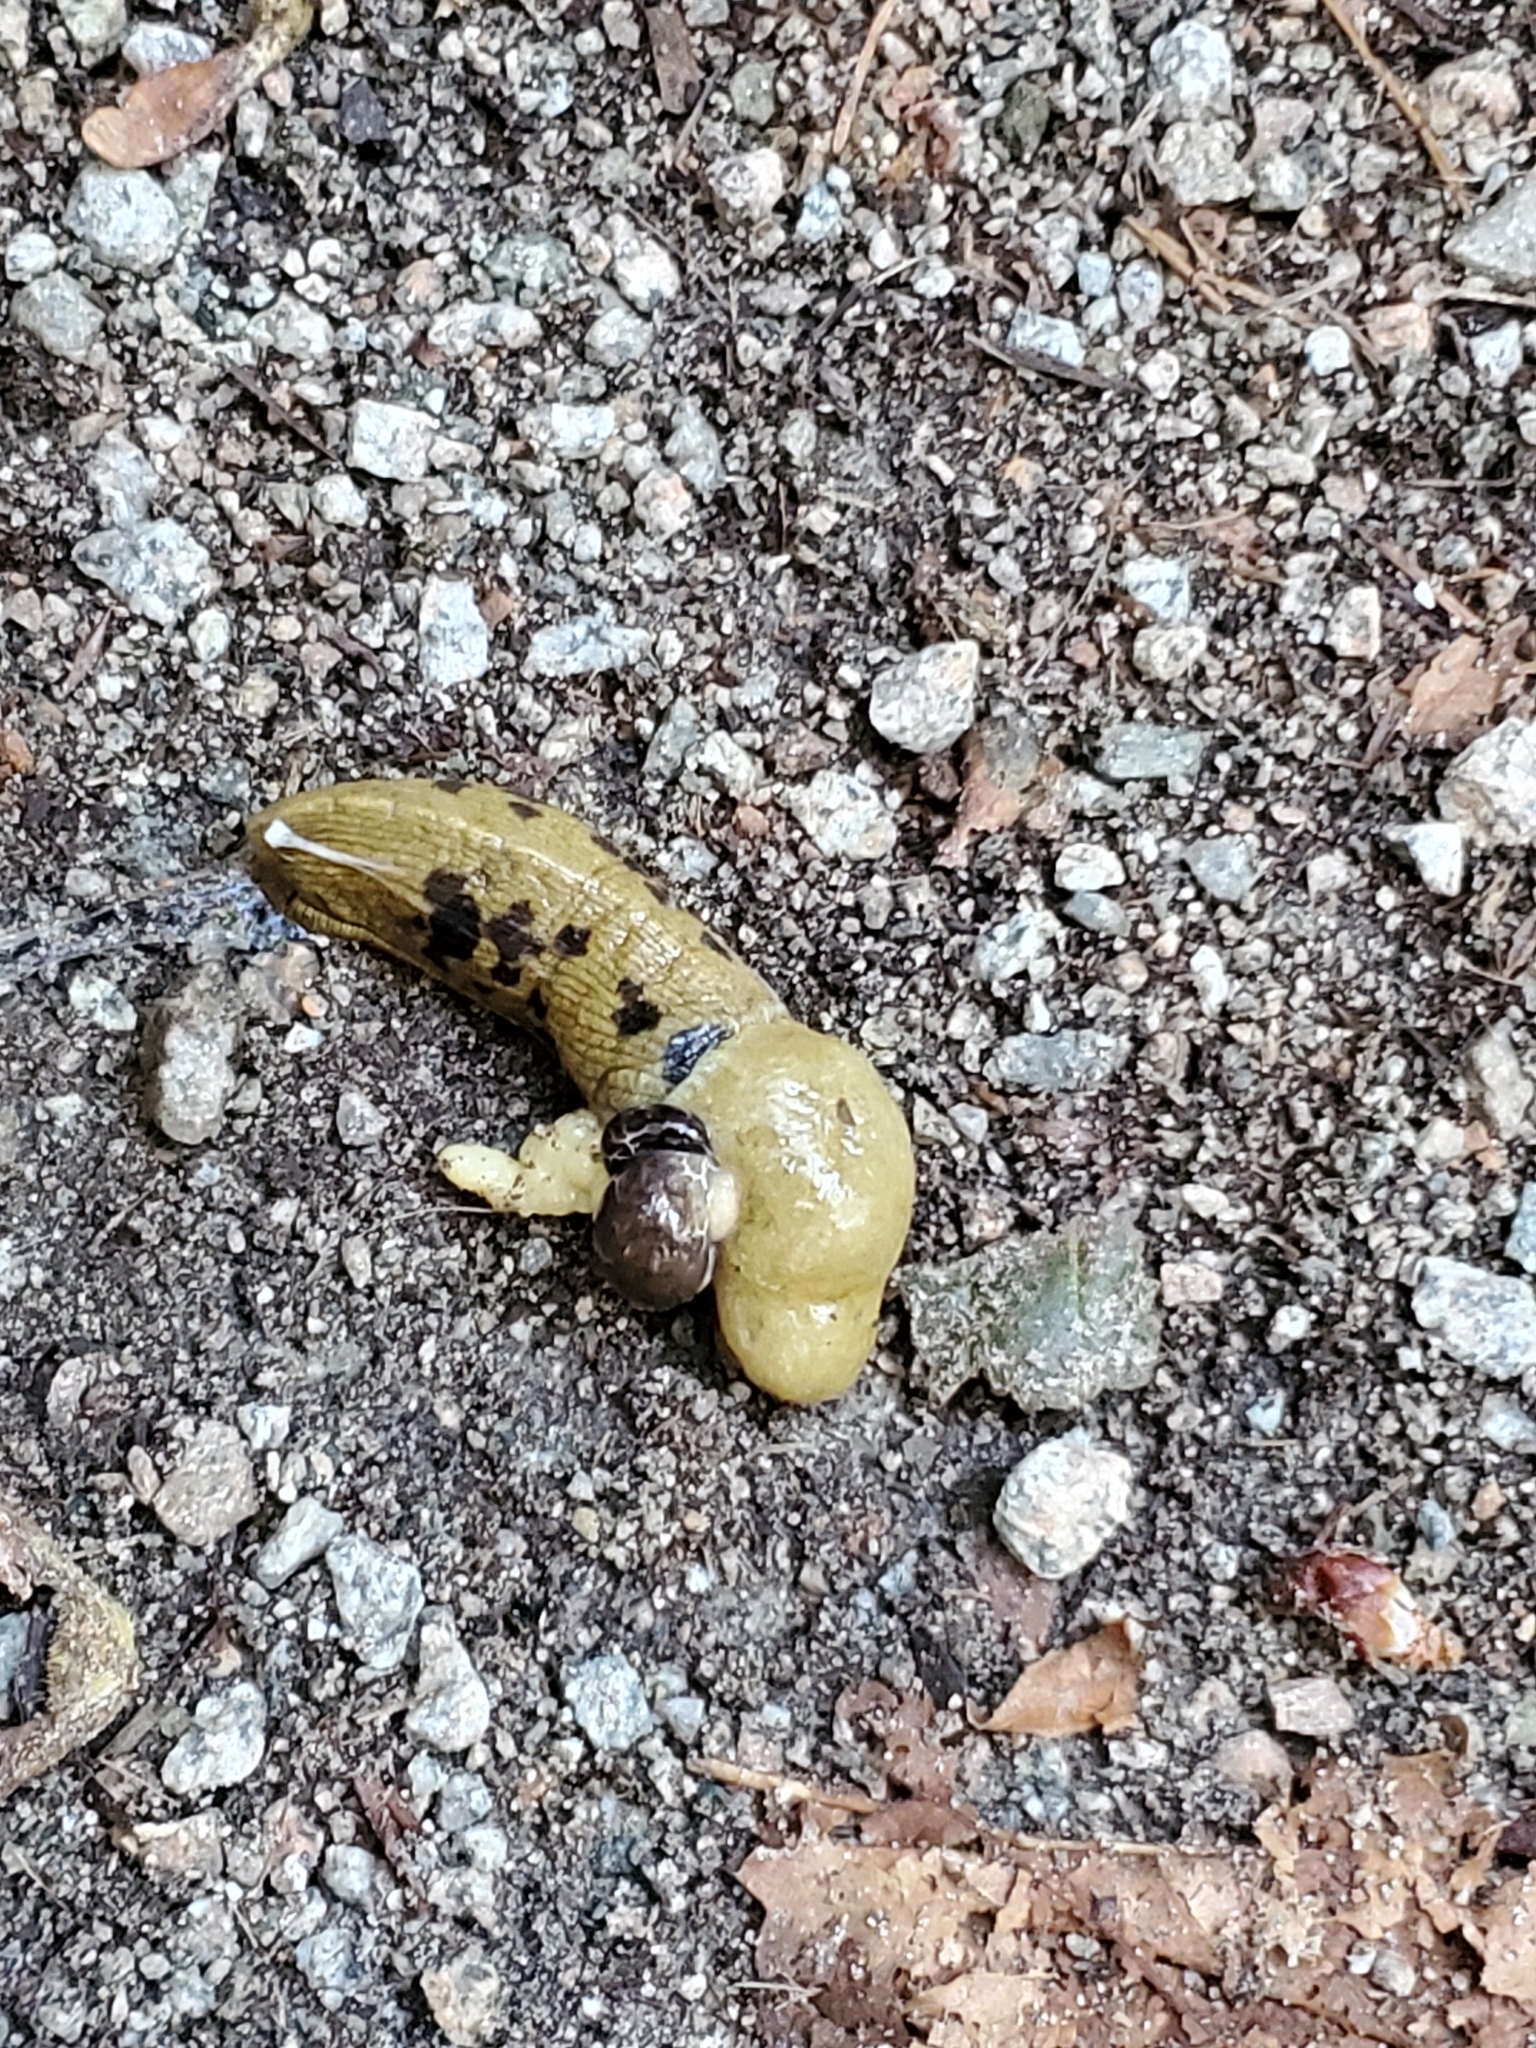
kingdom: Animalia
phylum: Mollusca
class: Gastropoda
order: Stylommatophora
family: Ariolimacidae
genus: Ariolimax
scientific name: Ariolimax columbianus
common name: Pacific banana slug
